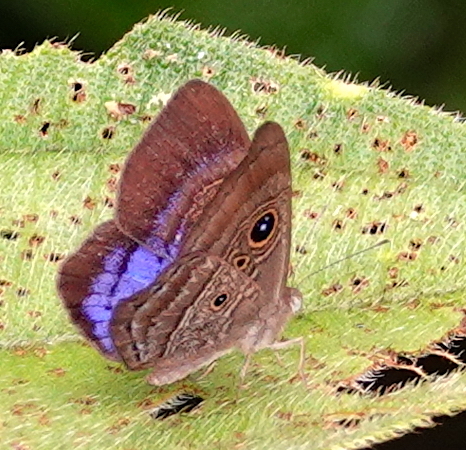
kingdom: Animalia
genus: Mesosemia
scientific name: Mesosemia
